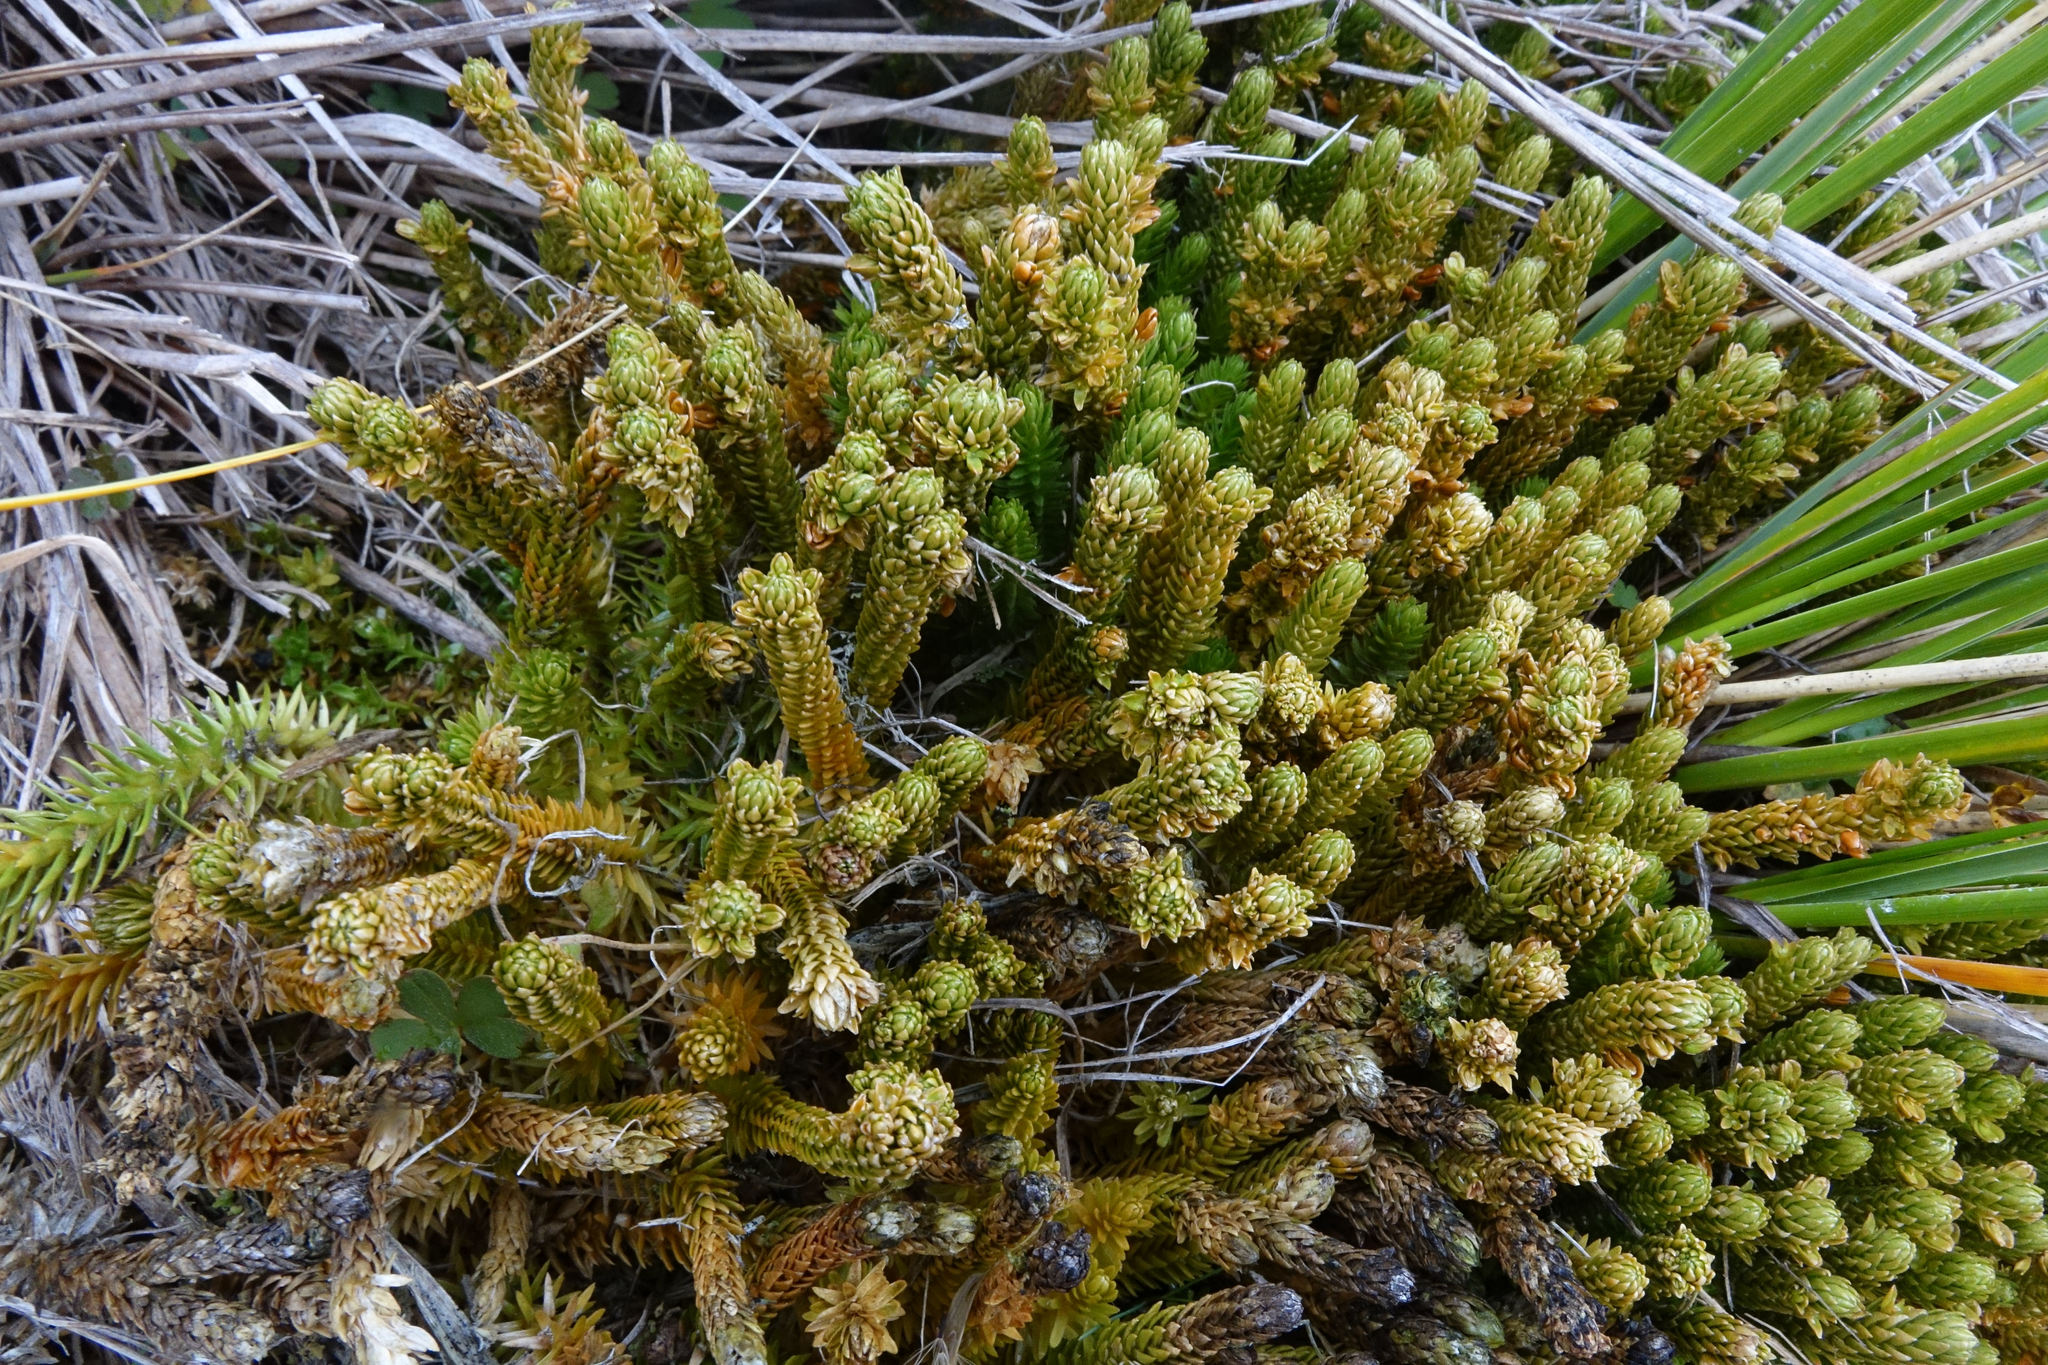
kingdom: Plantae
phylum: Tracheophyta
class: Lycopodiopsida
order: Lycopodiales
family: Lycopodiaceae
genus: Huperzia
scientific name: Huperzia australiana
